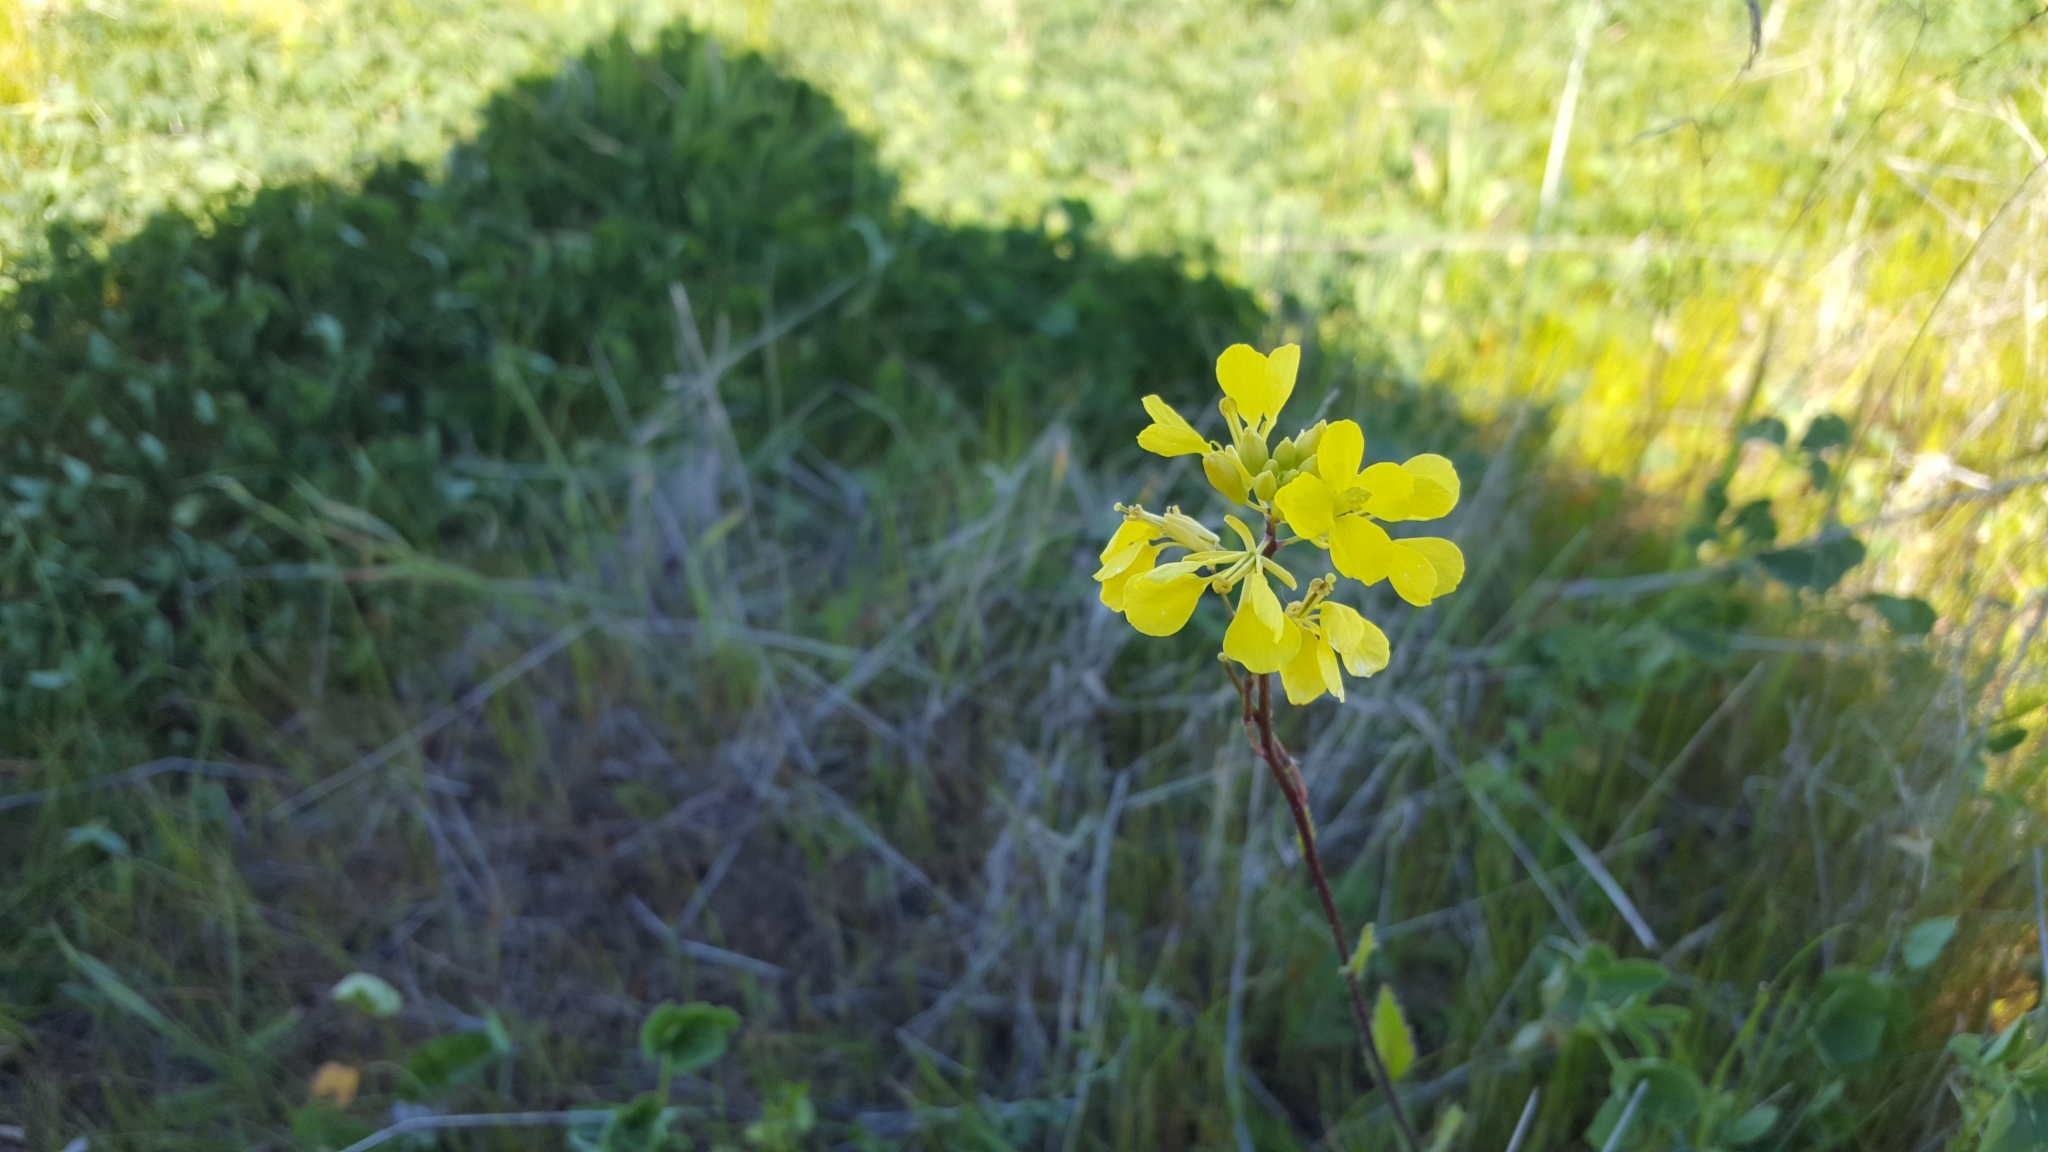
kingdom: Plantae
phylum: Tracheophyta
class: Magnoliopsida
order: Brassicales
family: Brassicaceae
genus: Brassica
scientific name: Brassica nigra
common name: Black mustard
